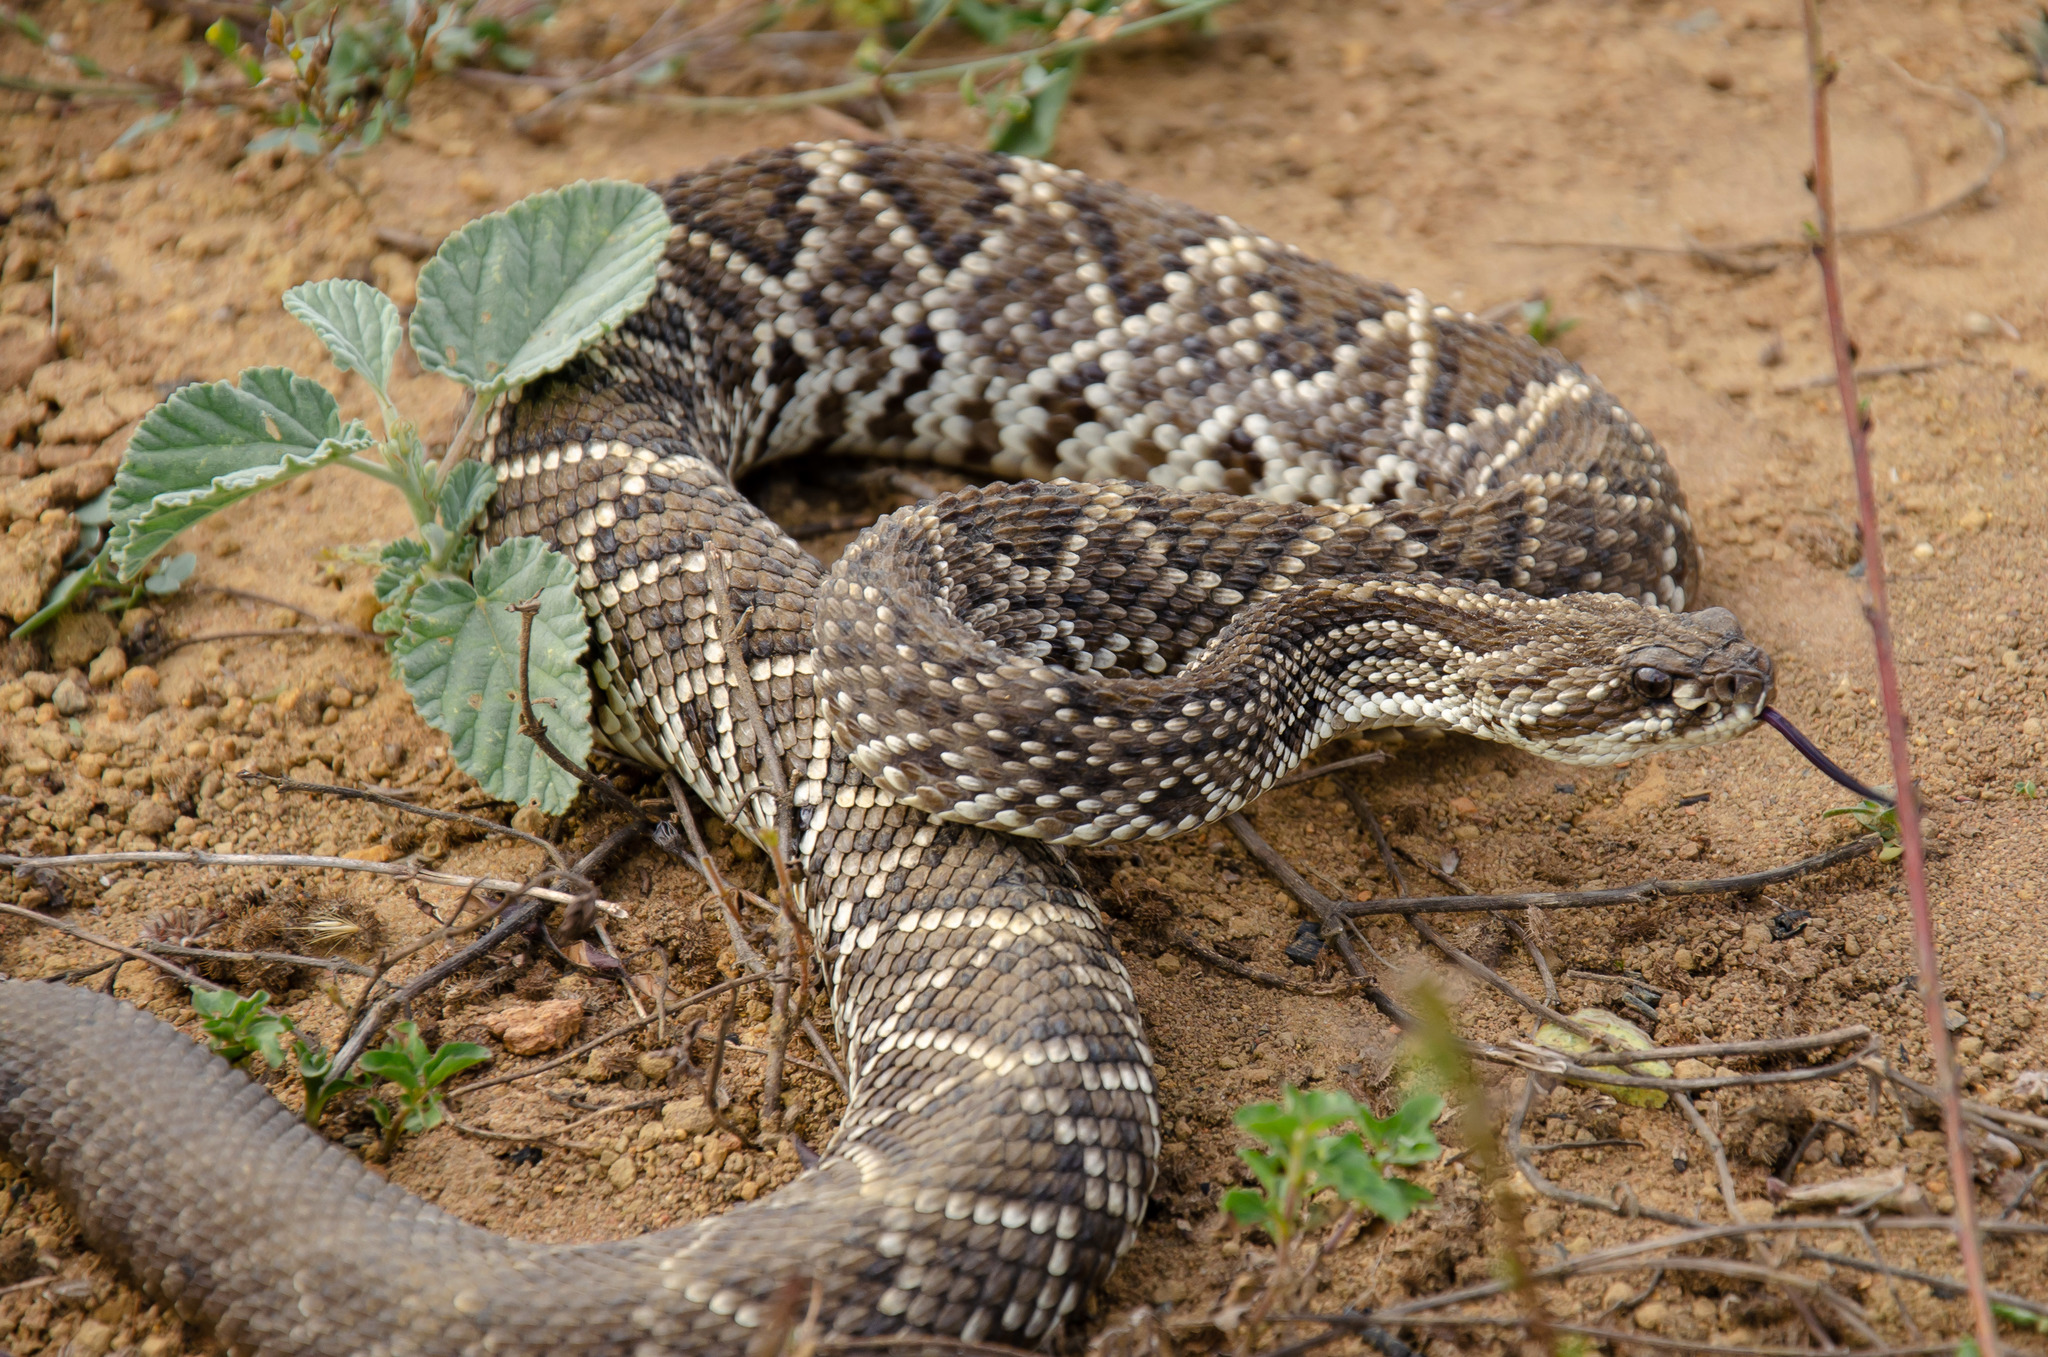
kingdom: Animalia
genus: Crotalus
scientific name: Crotalus durissus
